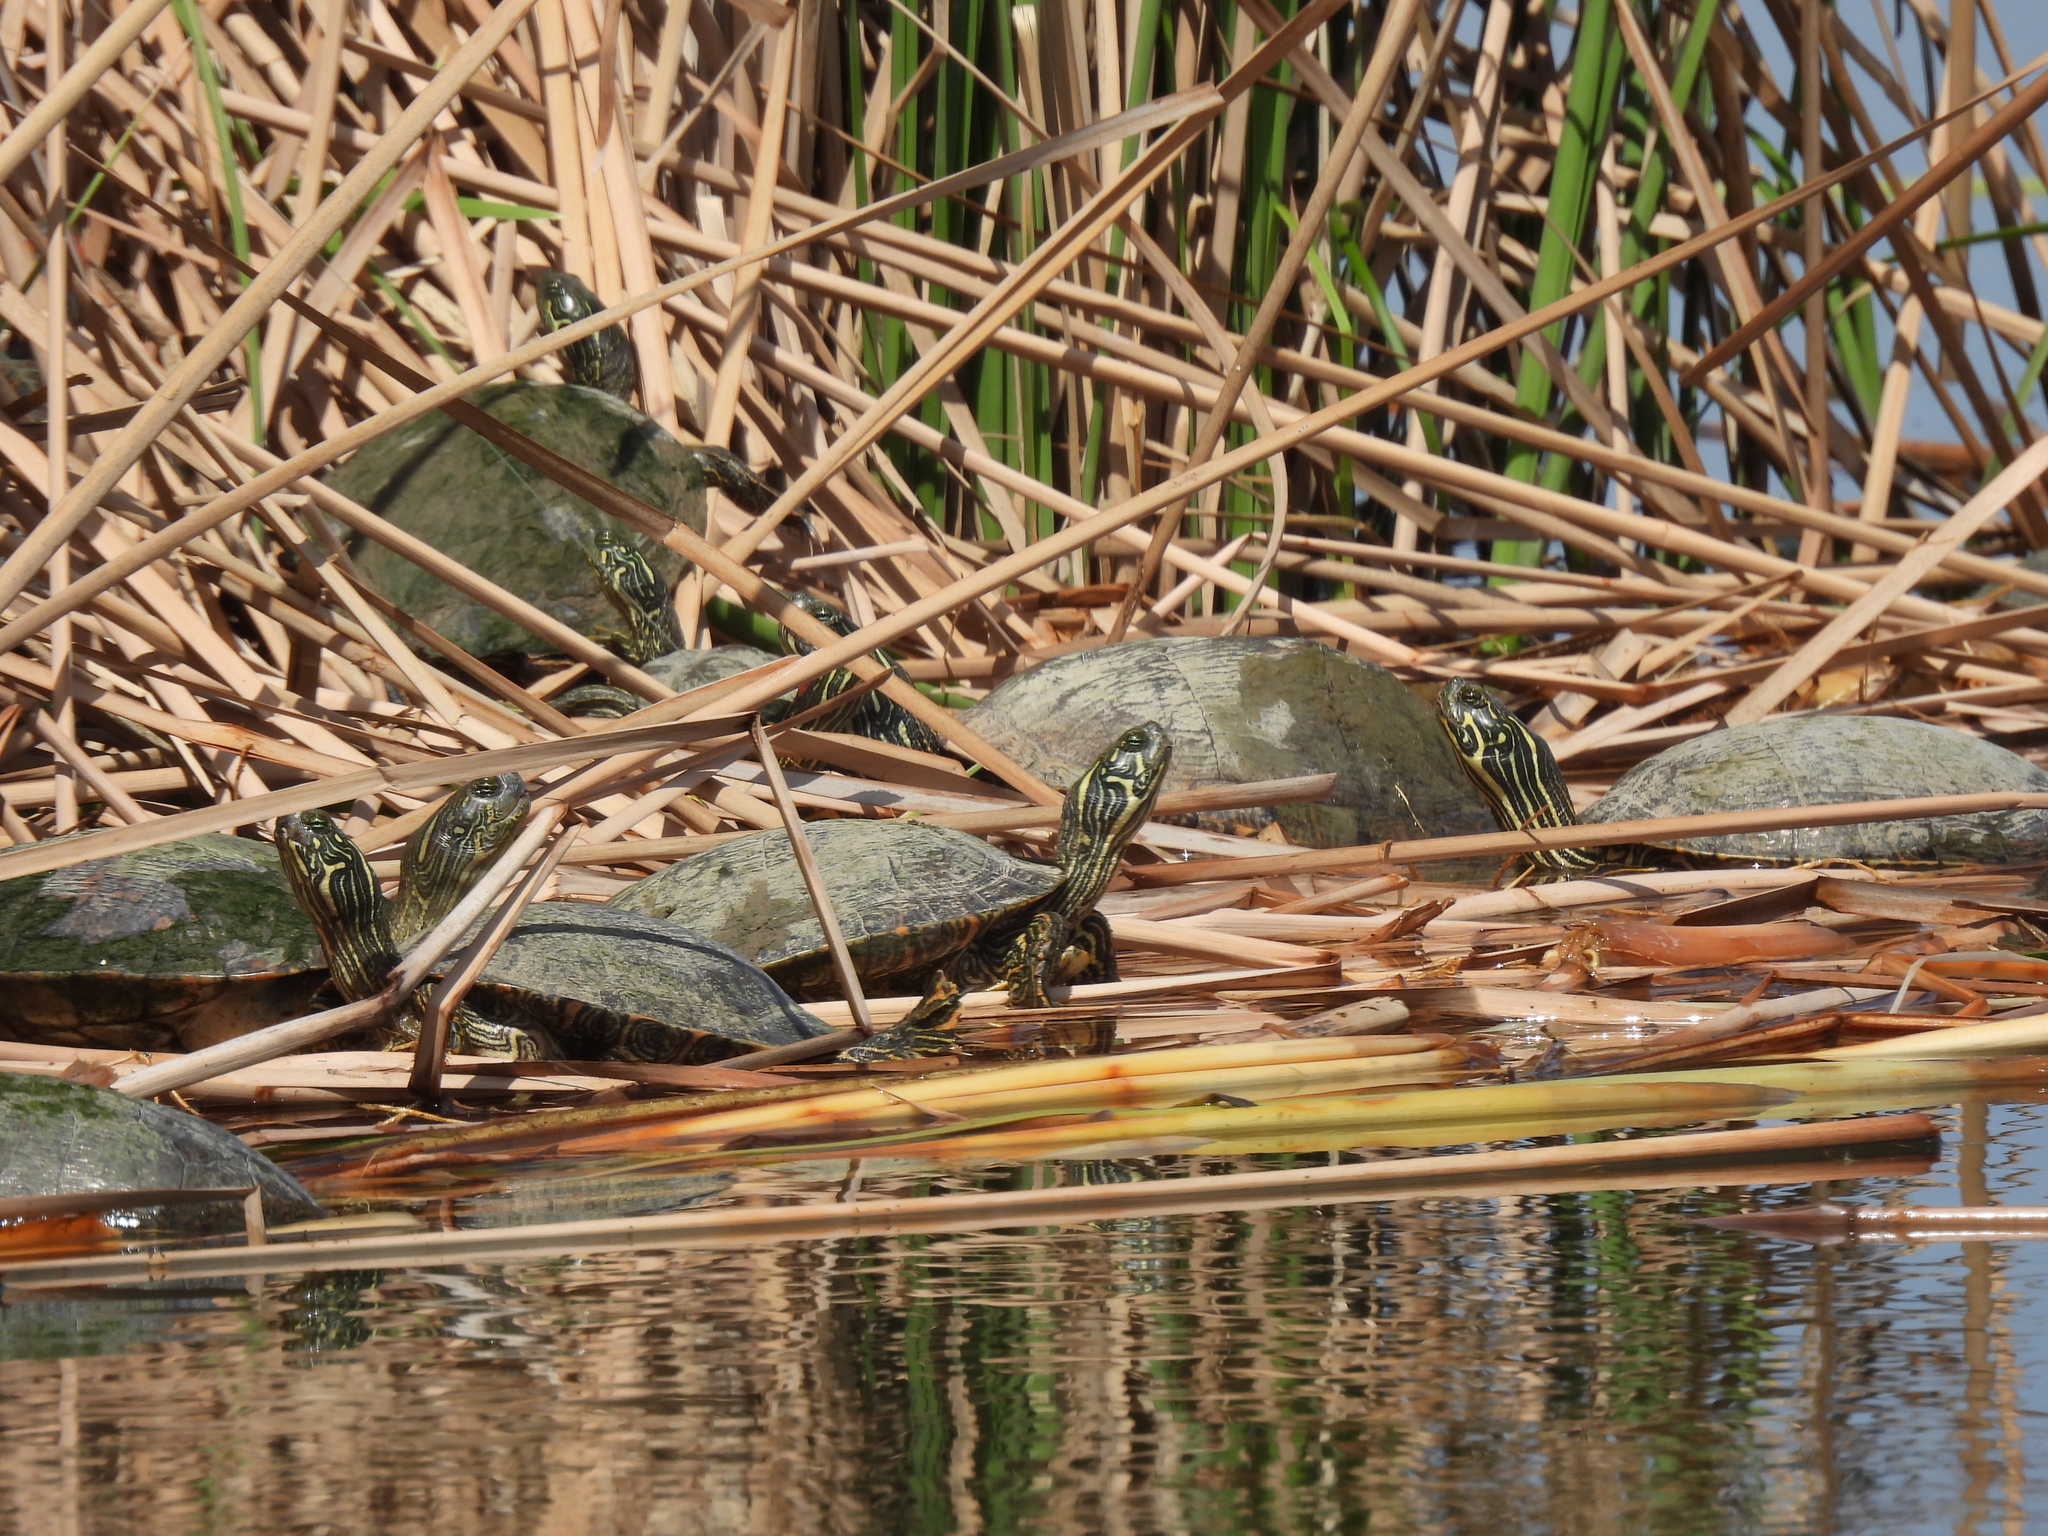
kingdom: Animalia
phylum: Chordata
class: Testudines
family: Emydidae
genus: Pseudemys
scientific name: Pseudemys texana
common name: Texas river cooter
